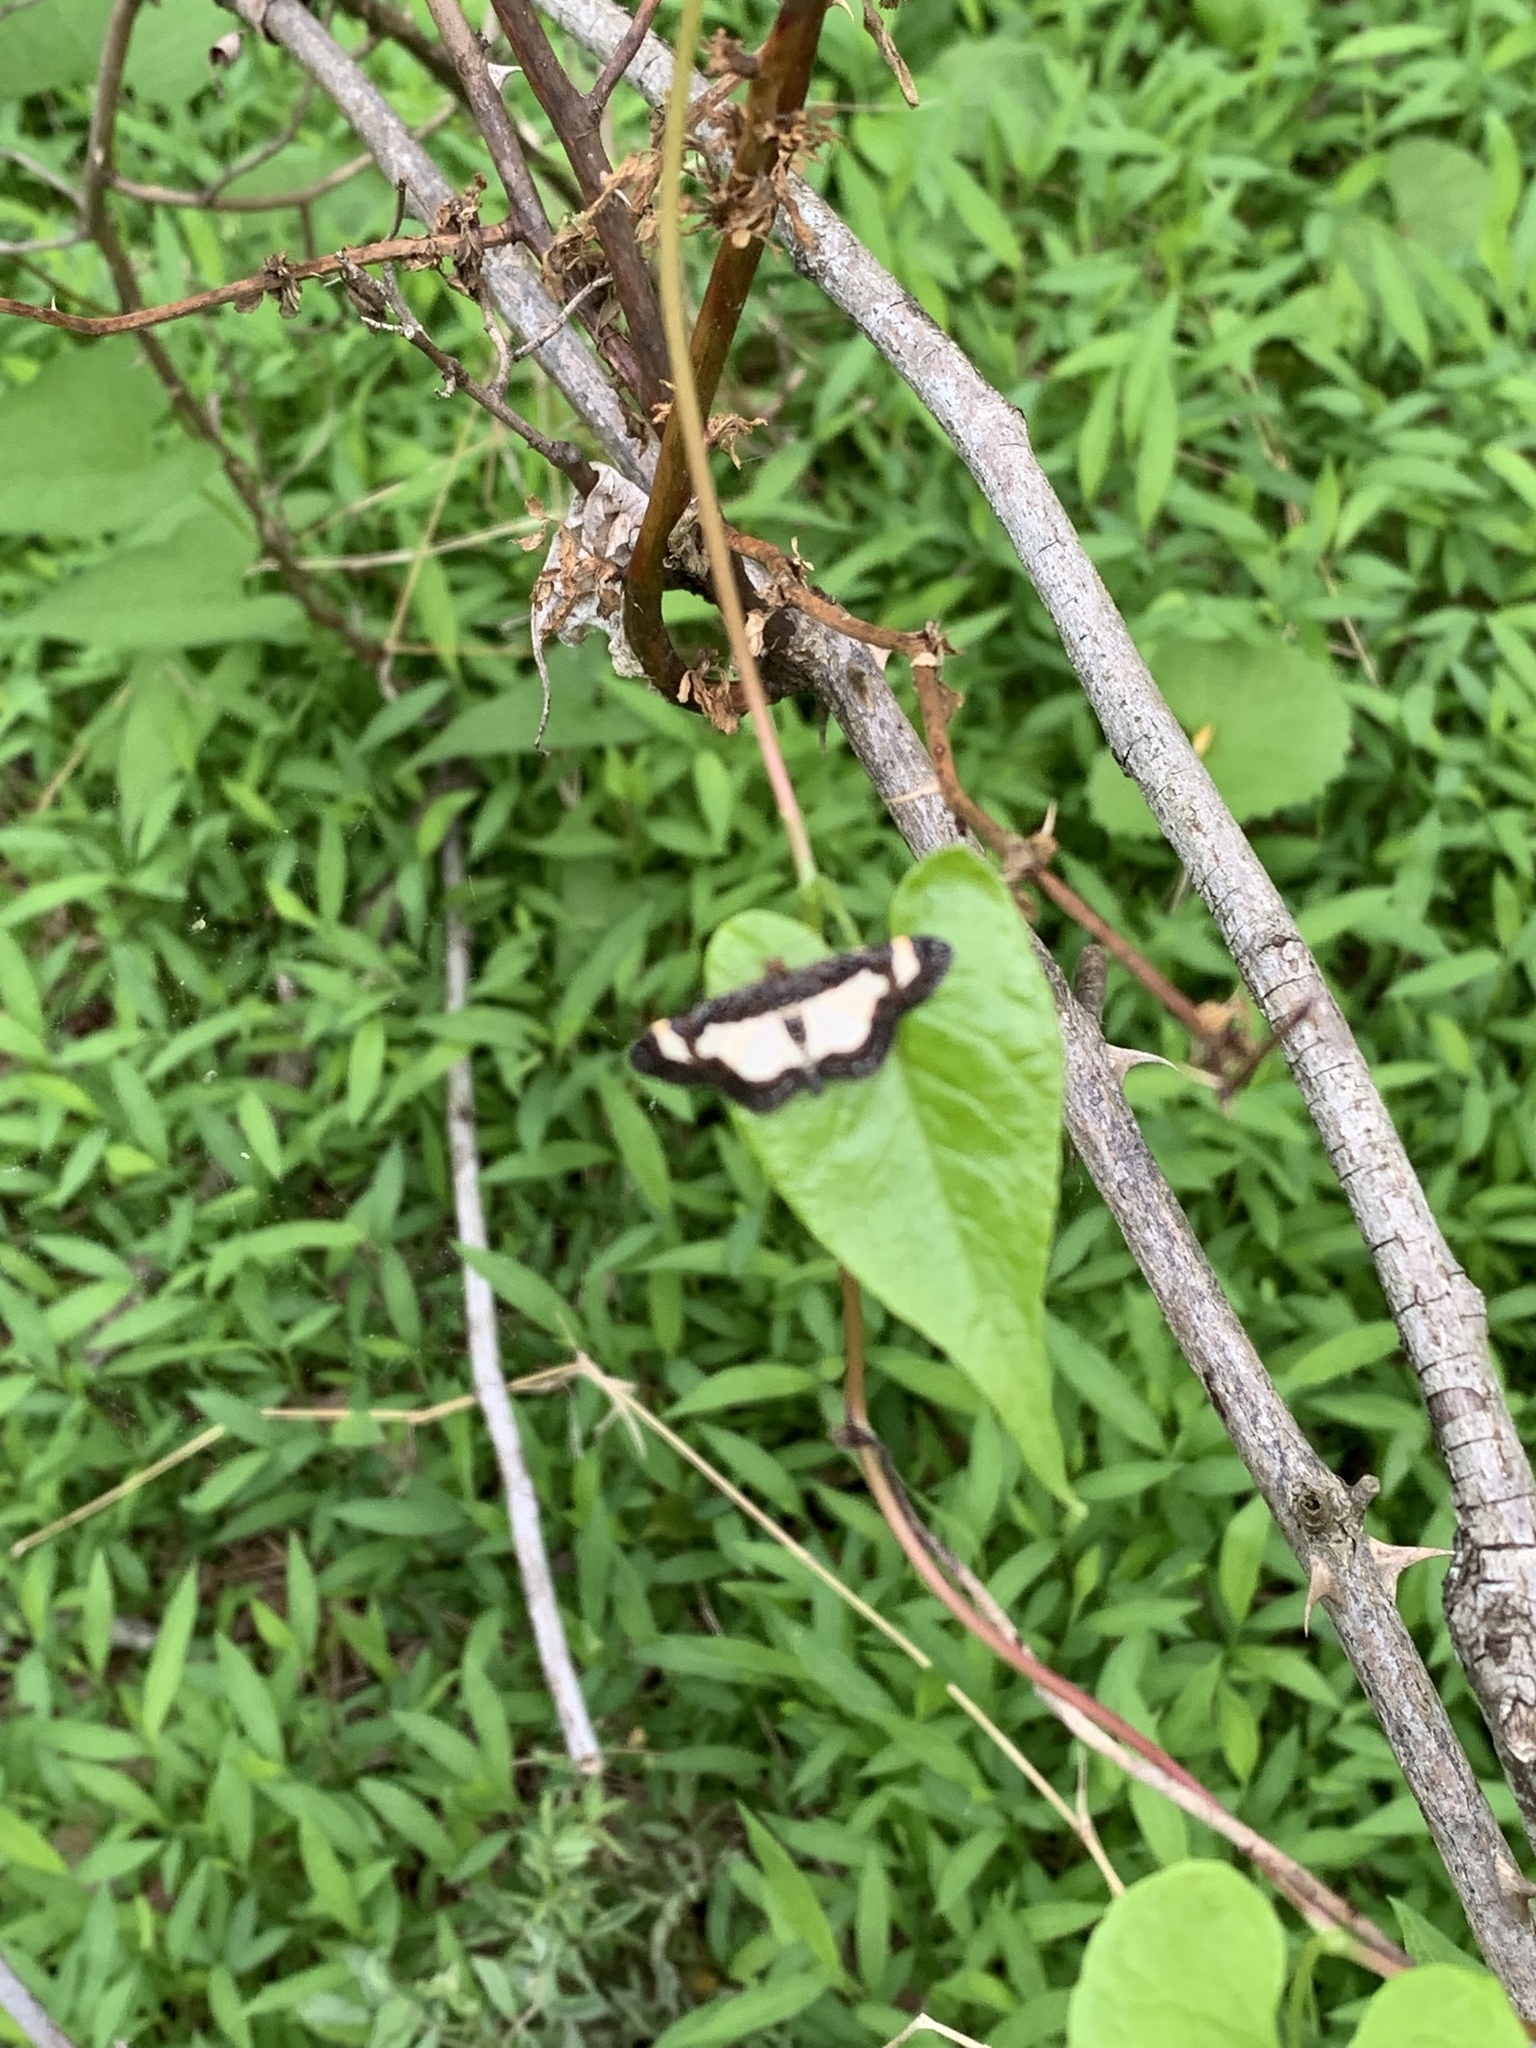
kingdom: Animalia
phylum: Arthropoda
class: Insecta
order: Lepidoptera
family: Geometridae
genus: Heliomata
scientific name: Heliomata cycladata
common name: Common spring moth
